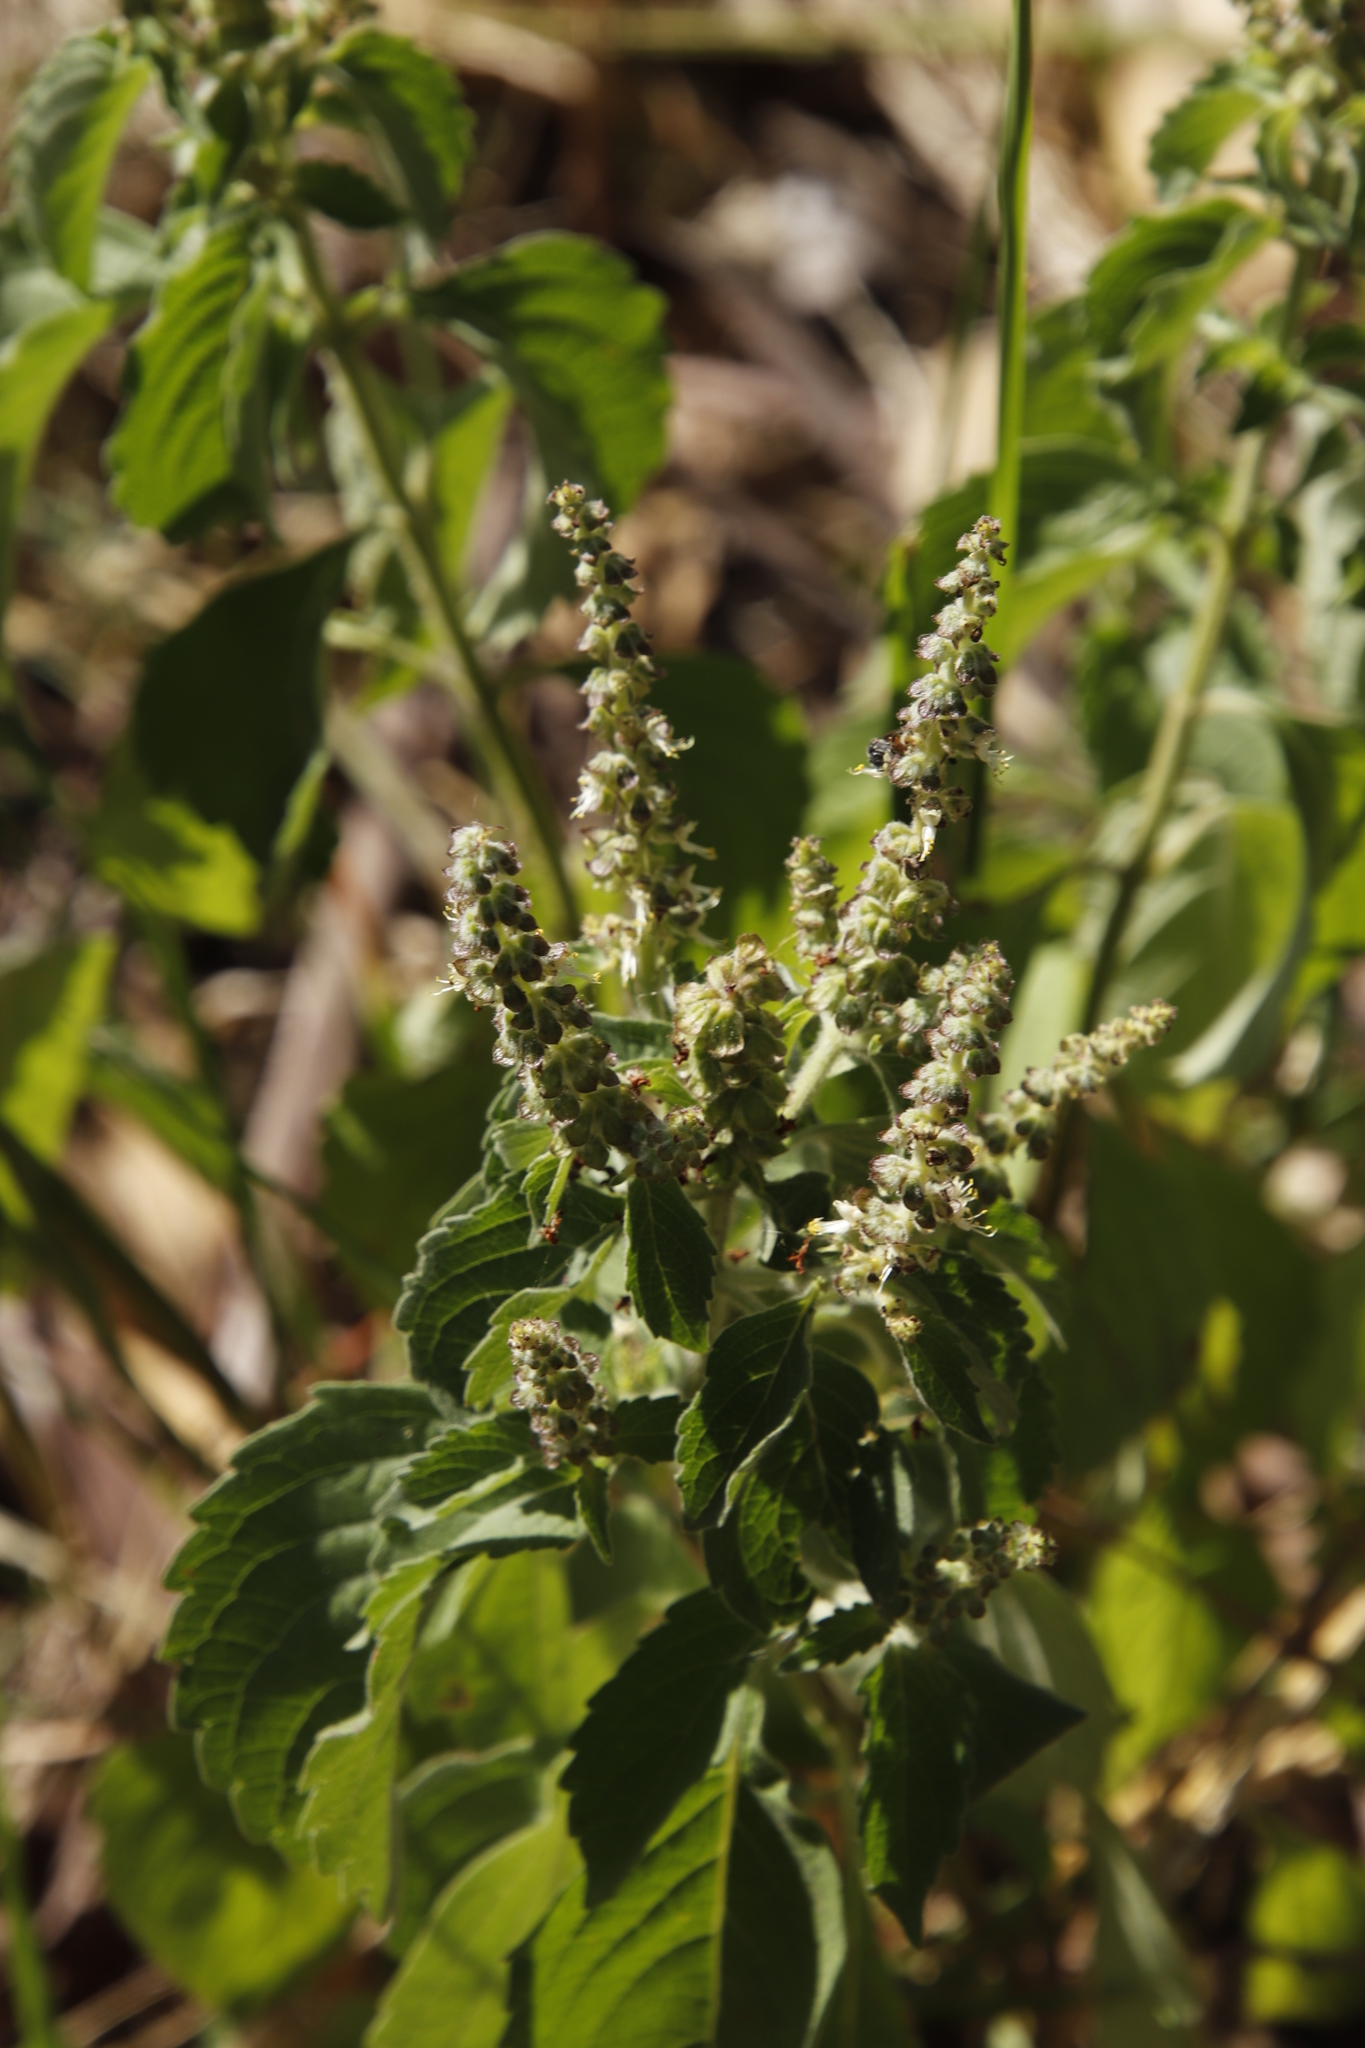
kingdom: Plantae
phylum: Tracheophyta
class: Magnoliopsida
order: Lamiales
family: Lamiaceae
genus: Ocimum
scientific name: Ocimum gratissimum
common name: African basil
